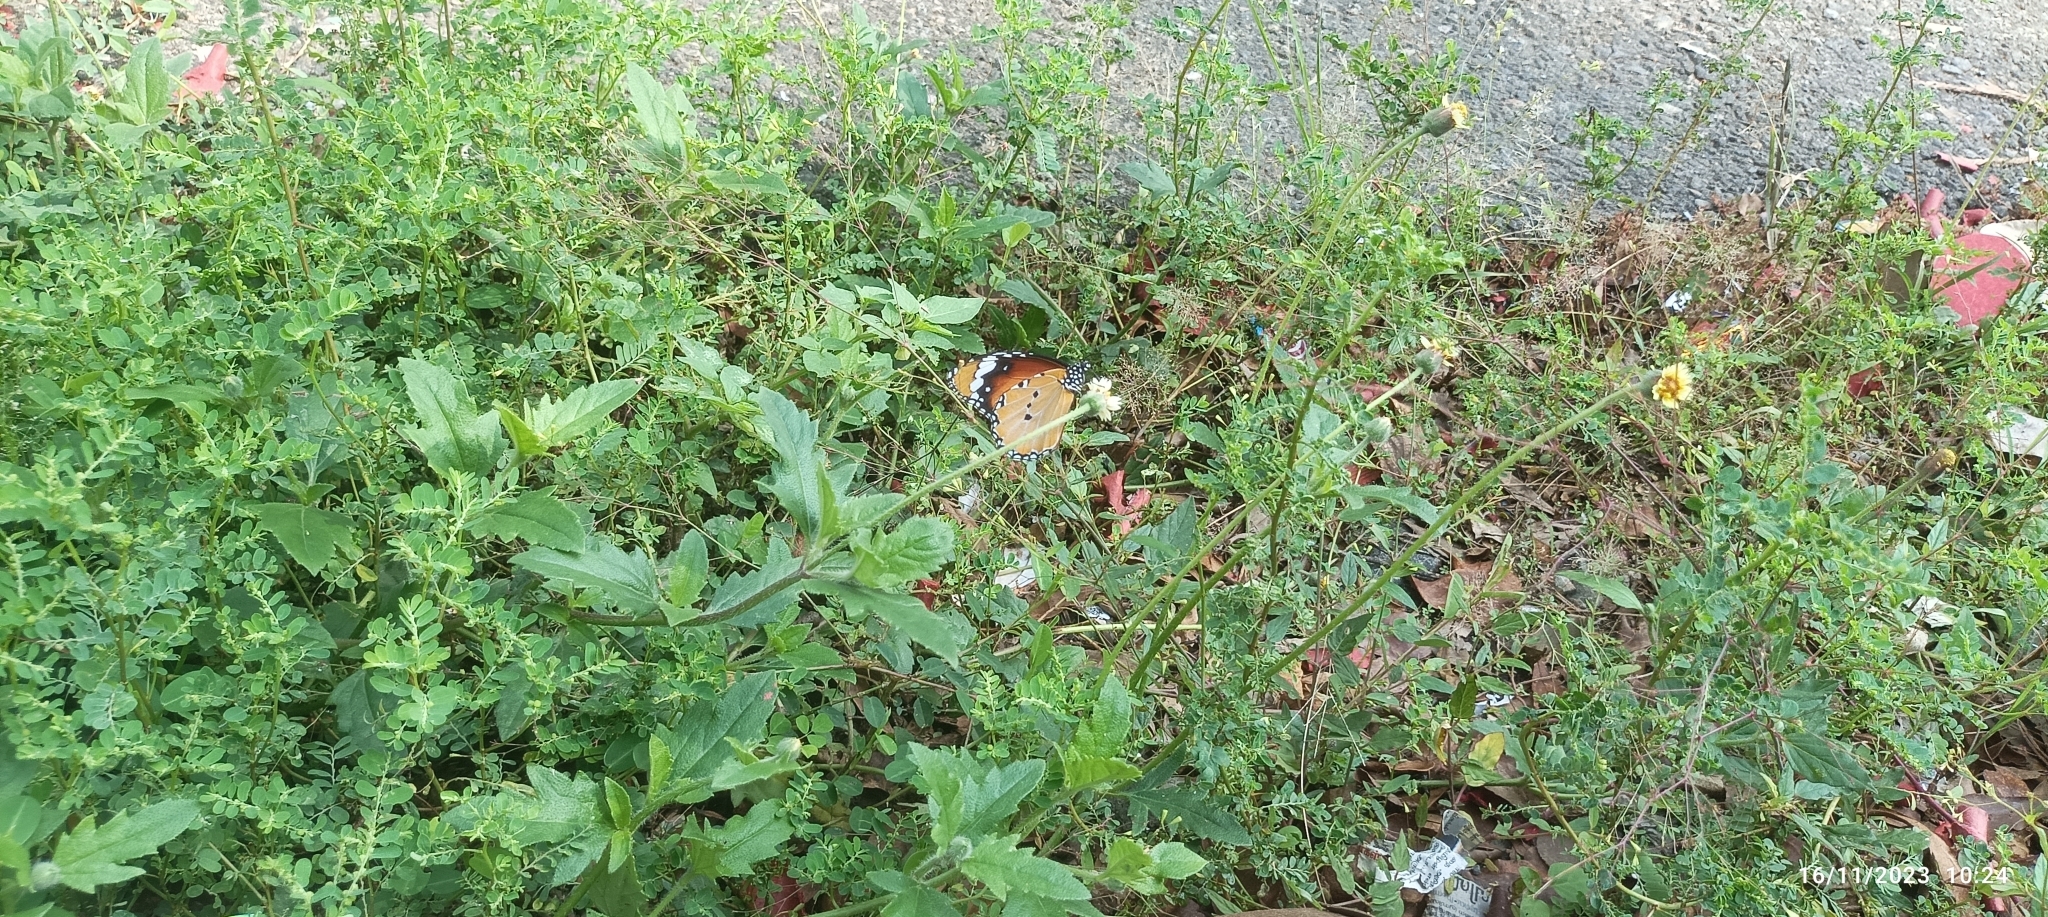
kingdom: Animalia
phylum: Arthropoda
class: Insecta
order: Lepidoptera
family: Nymphalidae
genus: Danaus
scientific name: Danaus chrysippus
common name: Plain tiger
